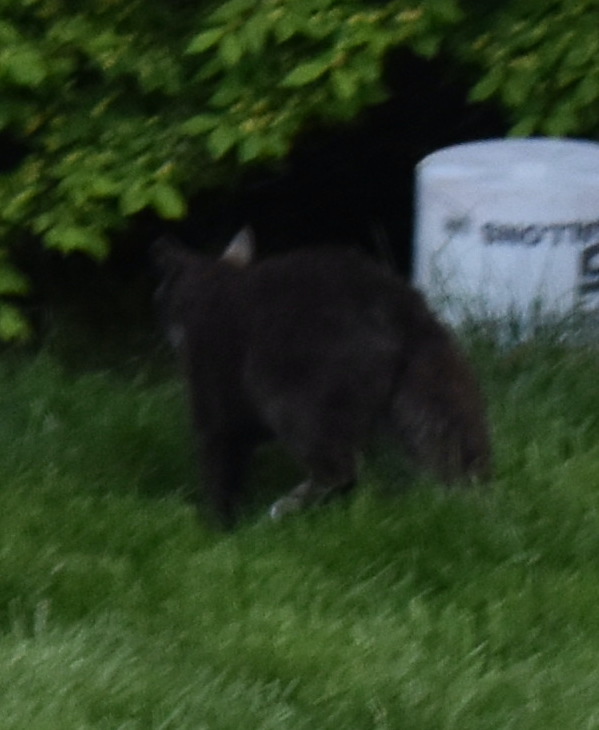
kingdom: Animalia
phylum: Chordata
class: Mammalia
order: Carnivora
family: Felidae
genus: Felis
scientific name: Felis catus
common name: Domestic cat
